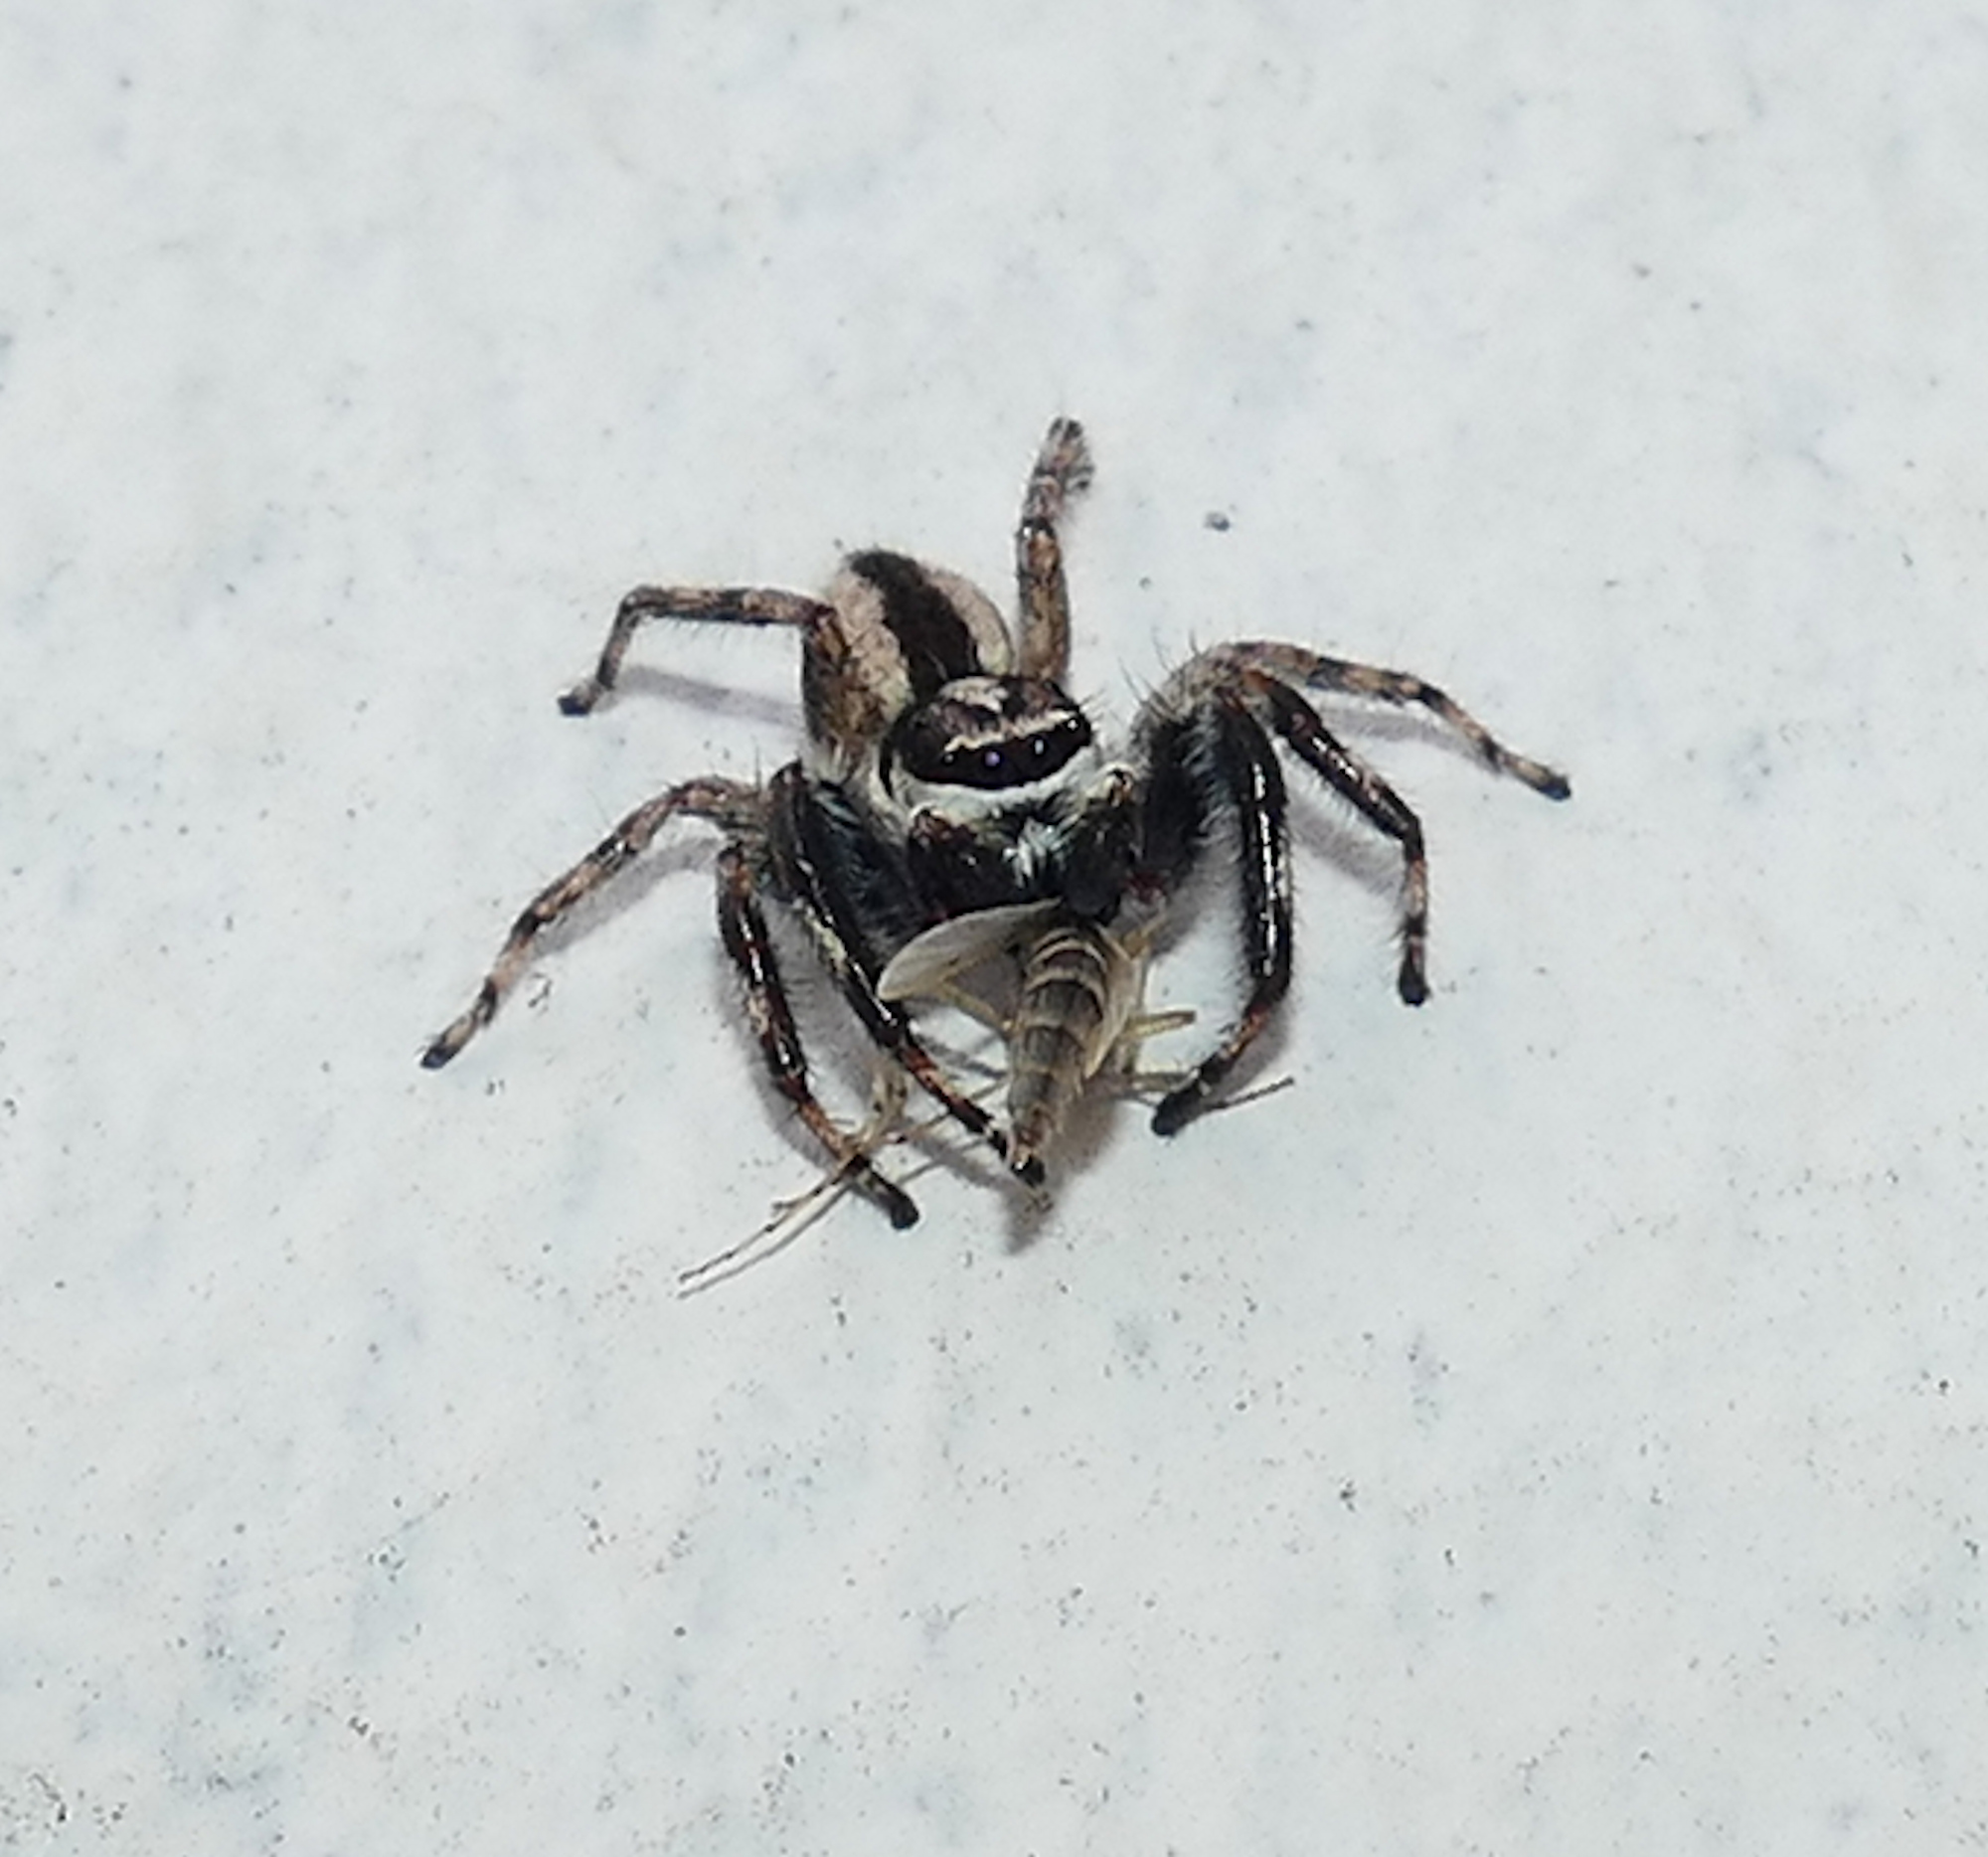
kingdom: Animalia
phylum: Arthropoda
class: Arachnida
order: Araneae
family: Salticidae
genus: Menemerus
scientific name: Menemerus bivittatus
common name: Gray wall jumper
